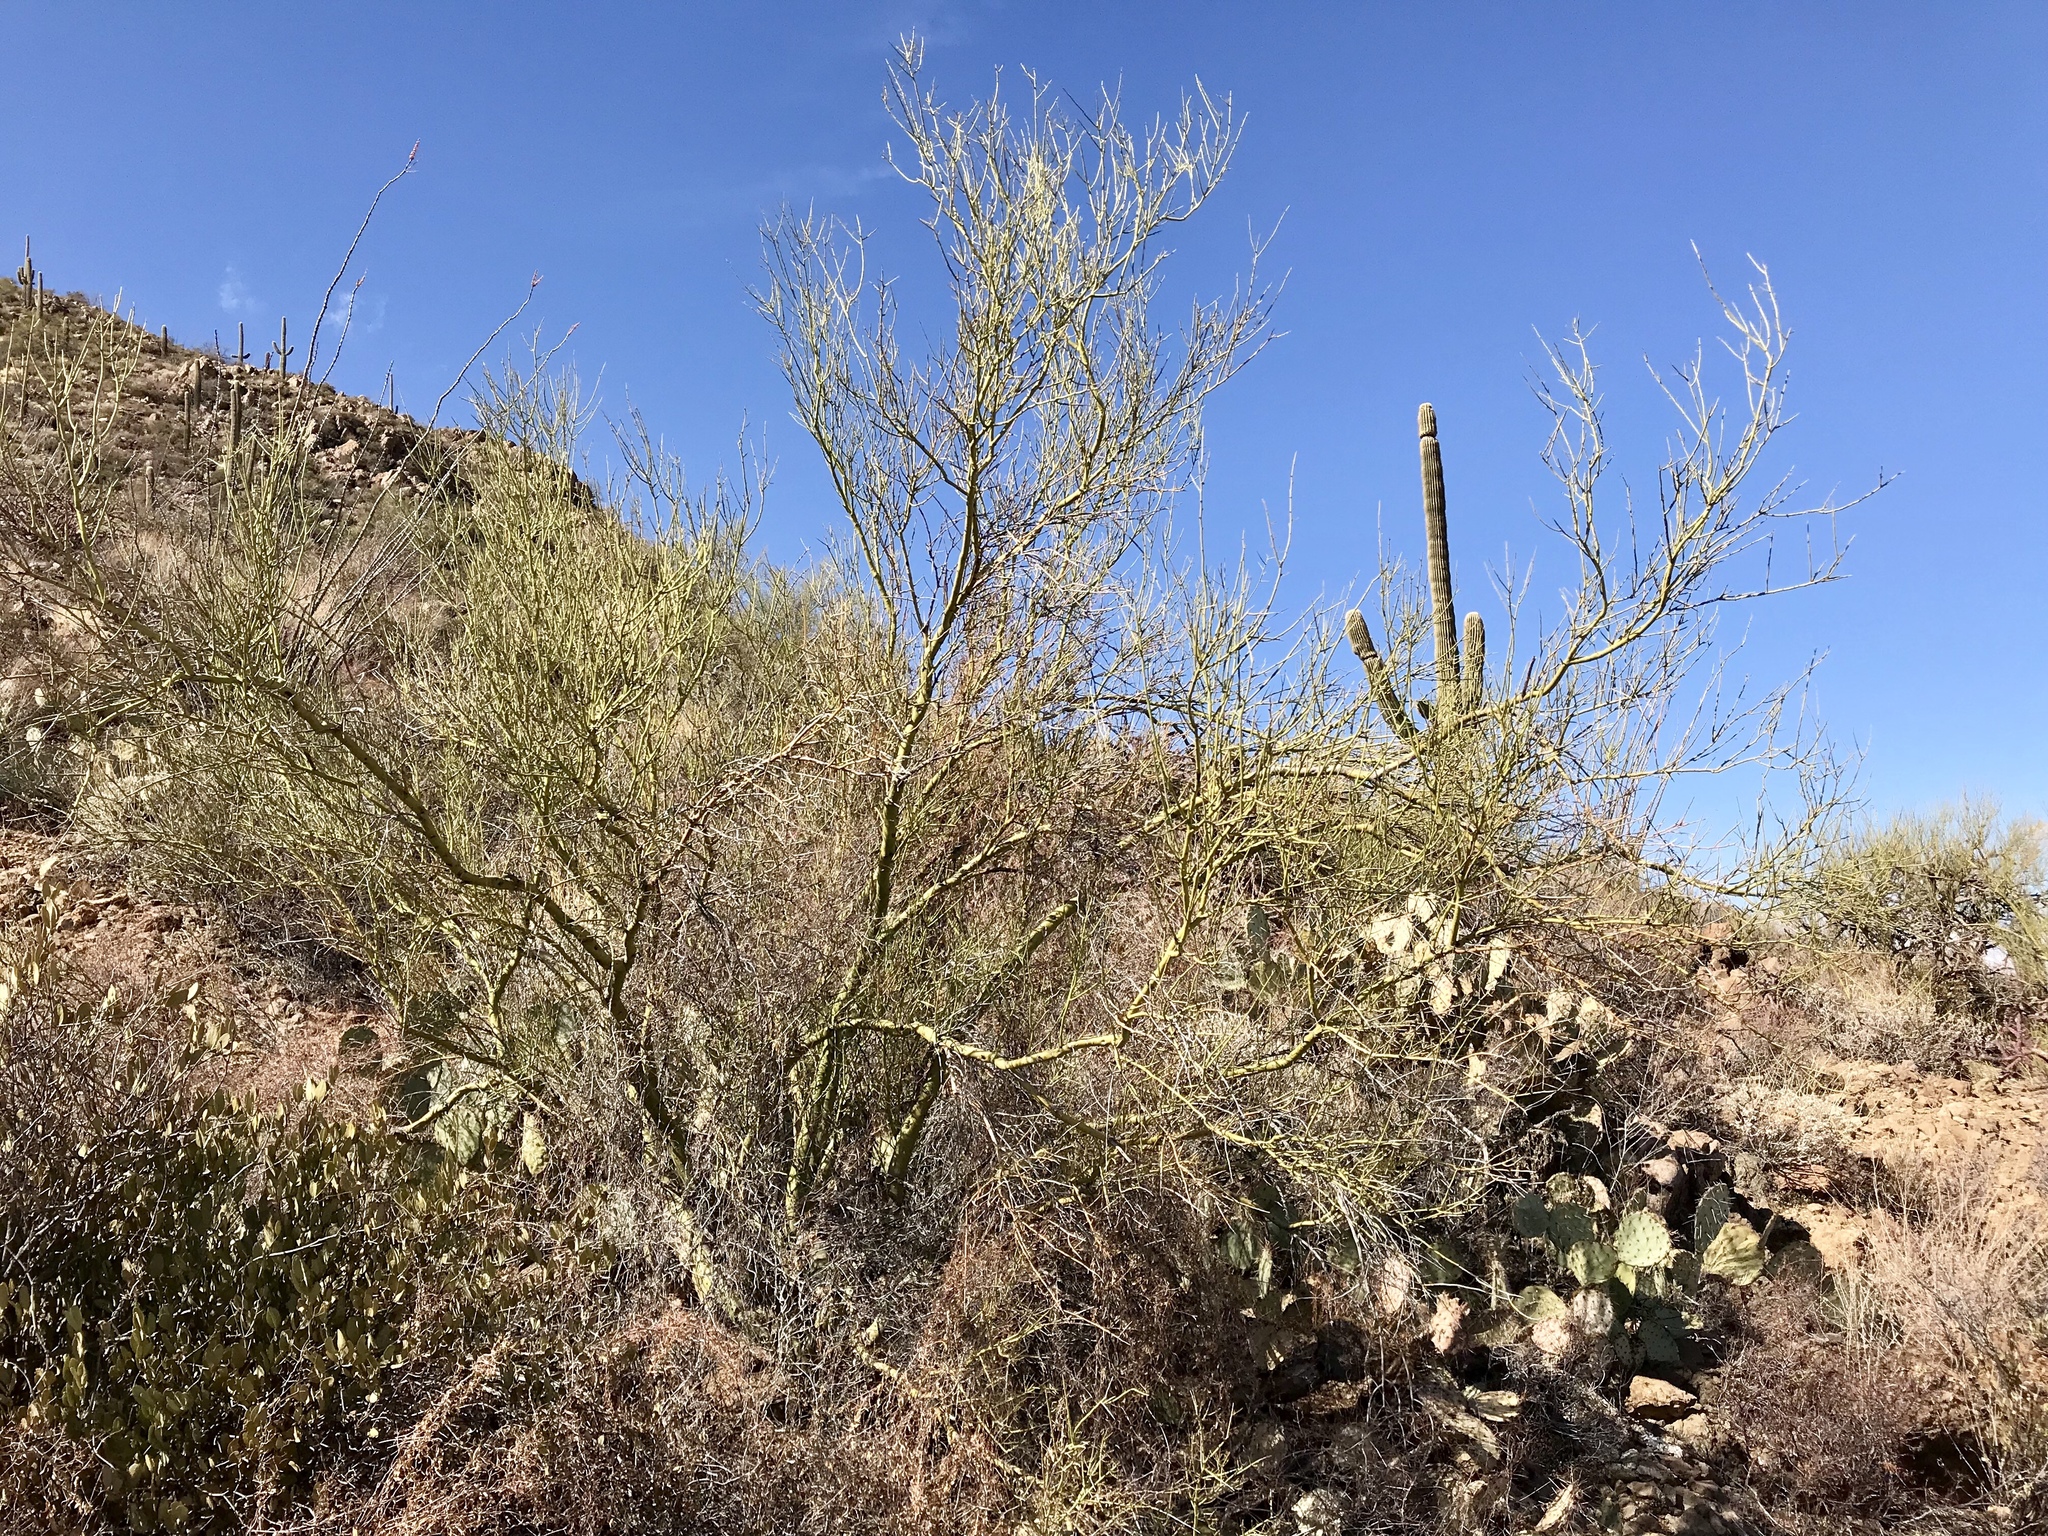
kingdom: Plantae
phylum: Tracheophyta
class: Magnoliopsida
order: Fabales
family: Fabaceae
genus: Parkinsonia
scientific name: Parkinsonia microphylla
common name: Yellow paloverde
